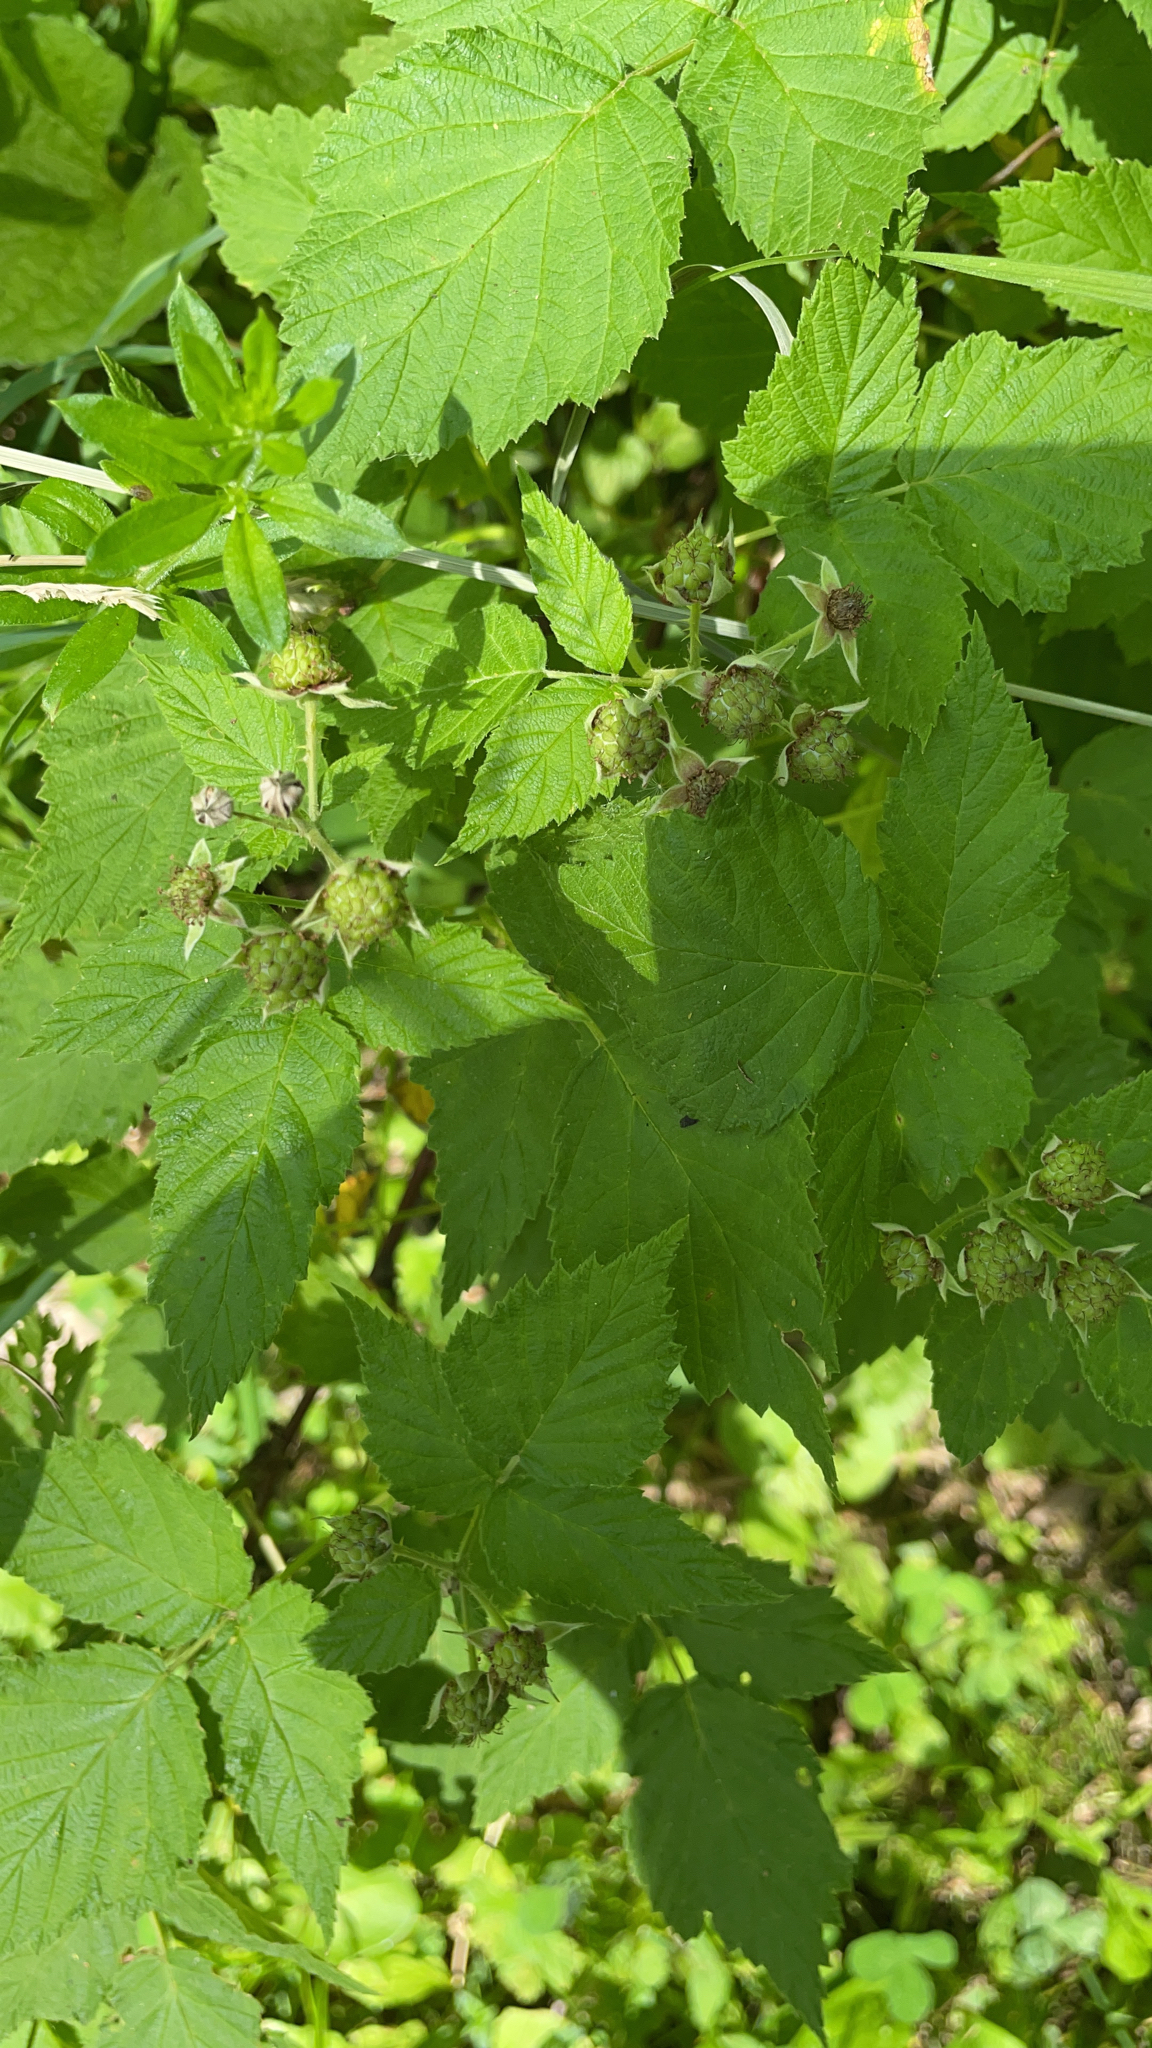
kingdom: Plantae
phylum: Tracheophyta
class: Magnoliopsida
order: Rosales
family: Rosaceae
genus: Rubus
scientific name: Rubus occidentalis
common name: Black raspberry
